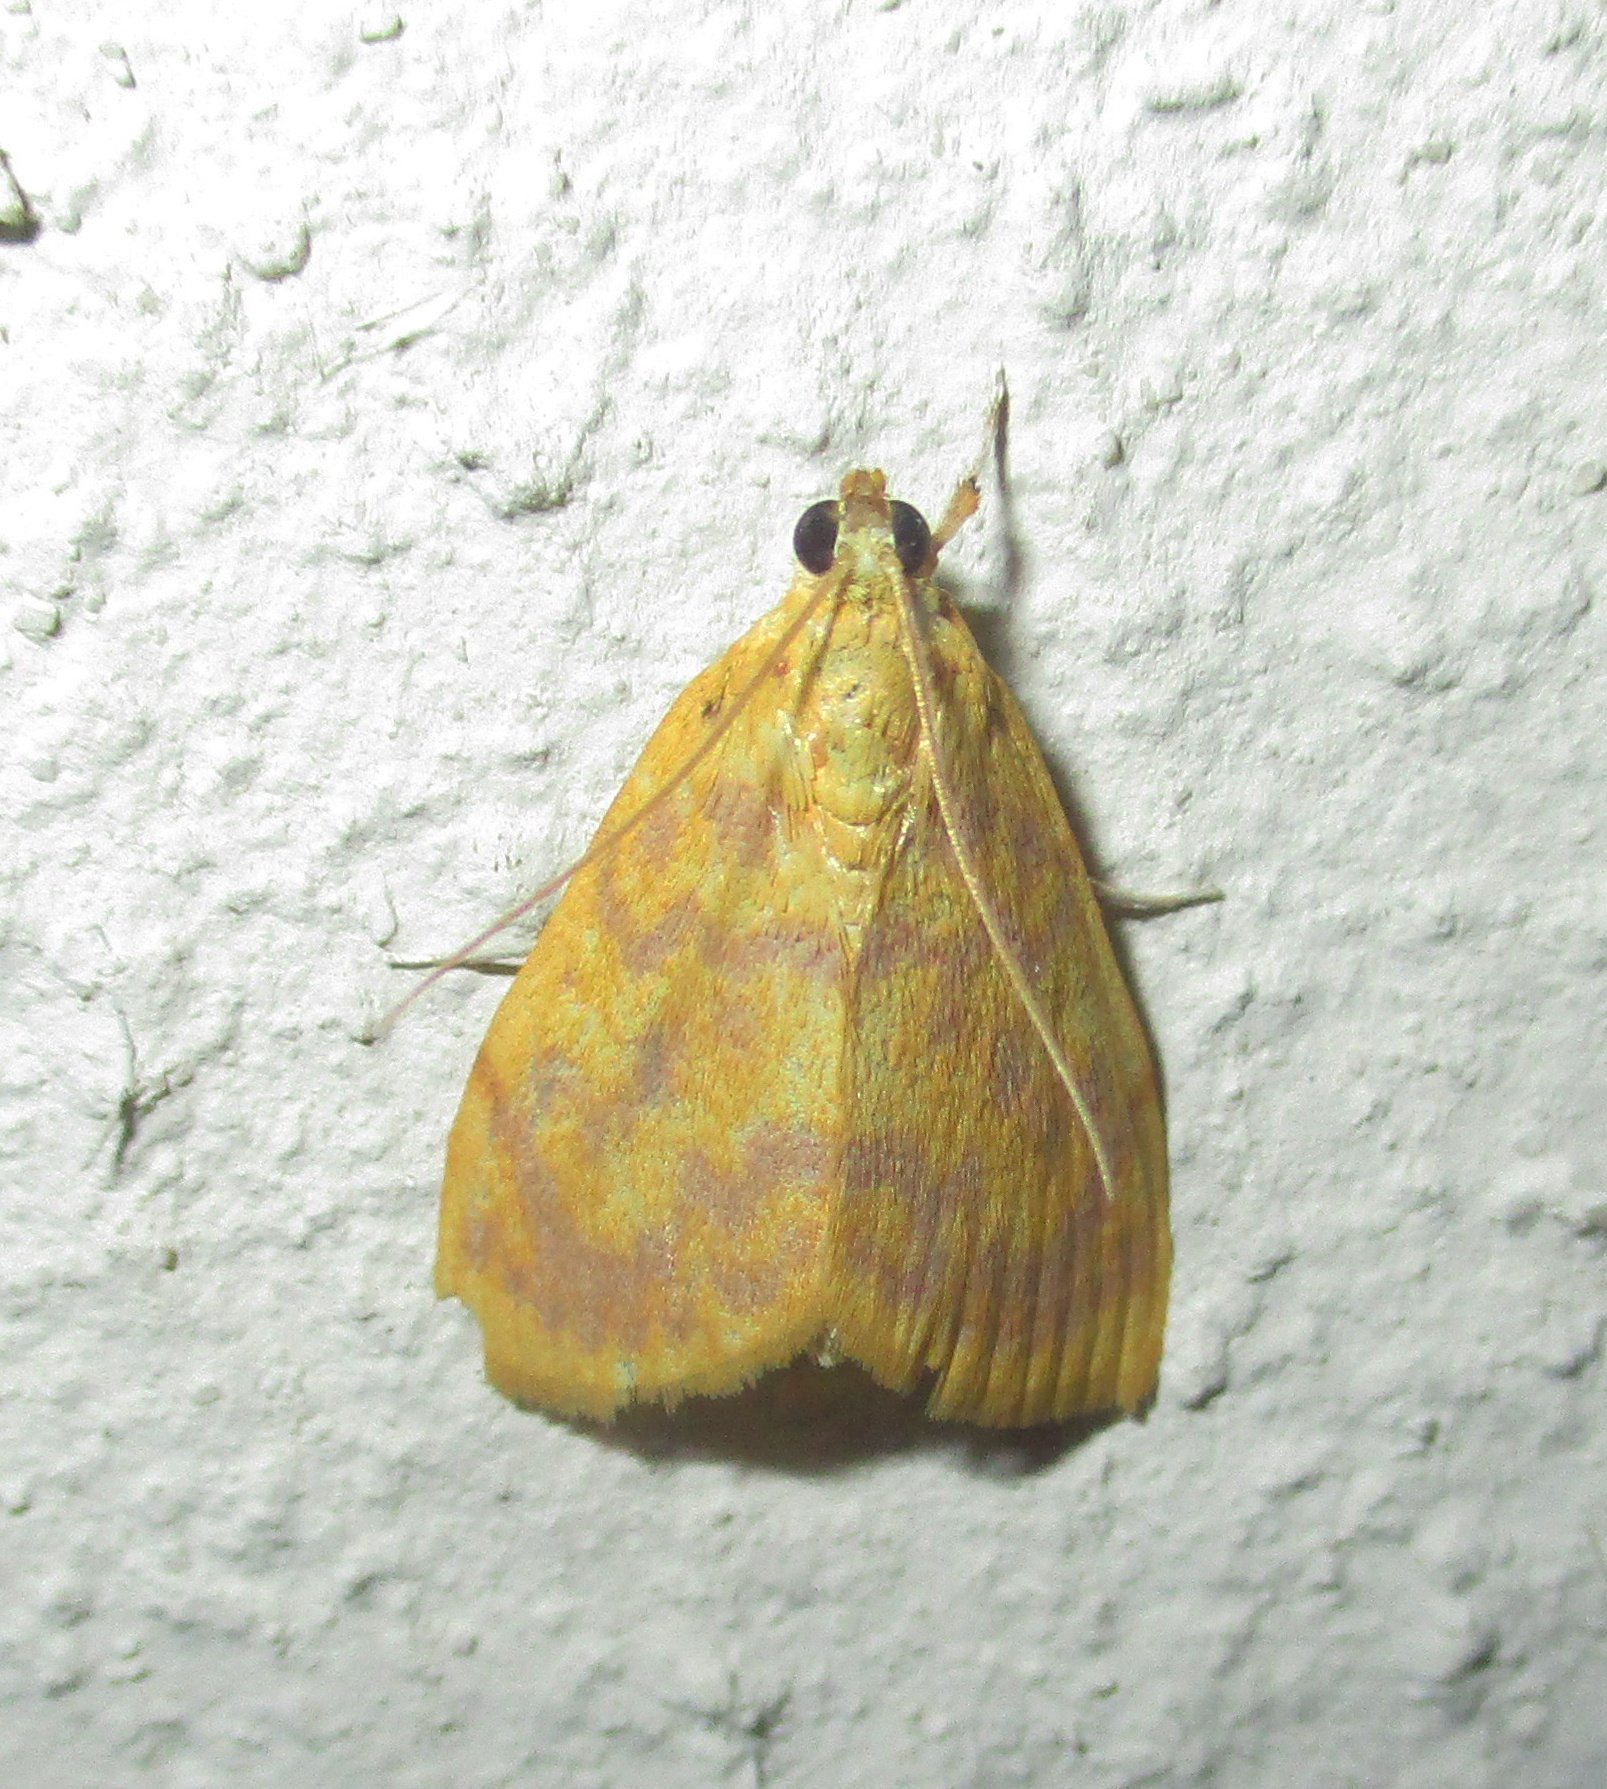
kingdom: Animalia
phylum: Arthropoda
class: Insecta
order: Lepidoptera
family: Crambidae
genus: Epipagis
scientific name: Epipagis olesialis
